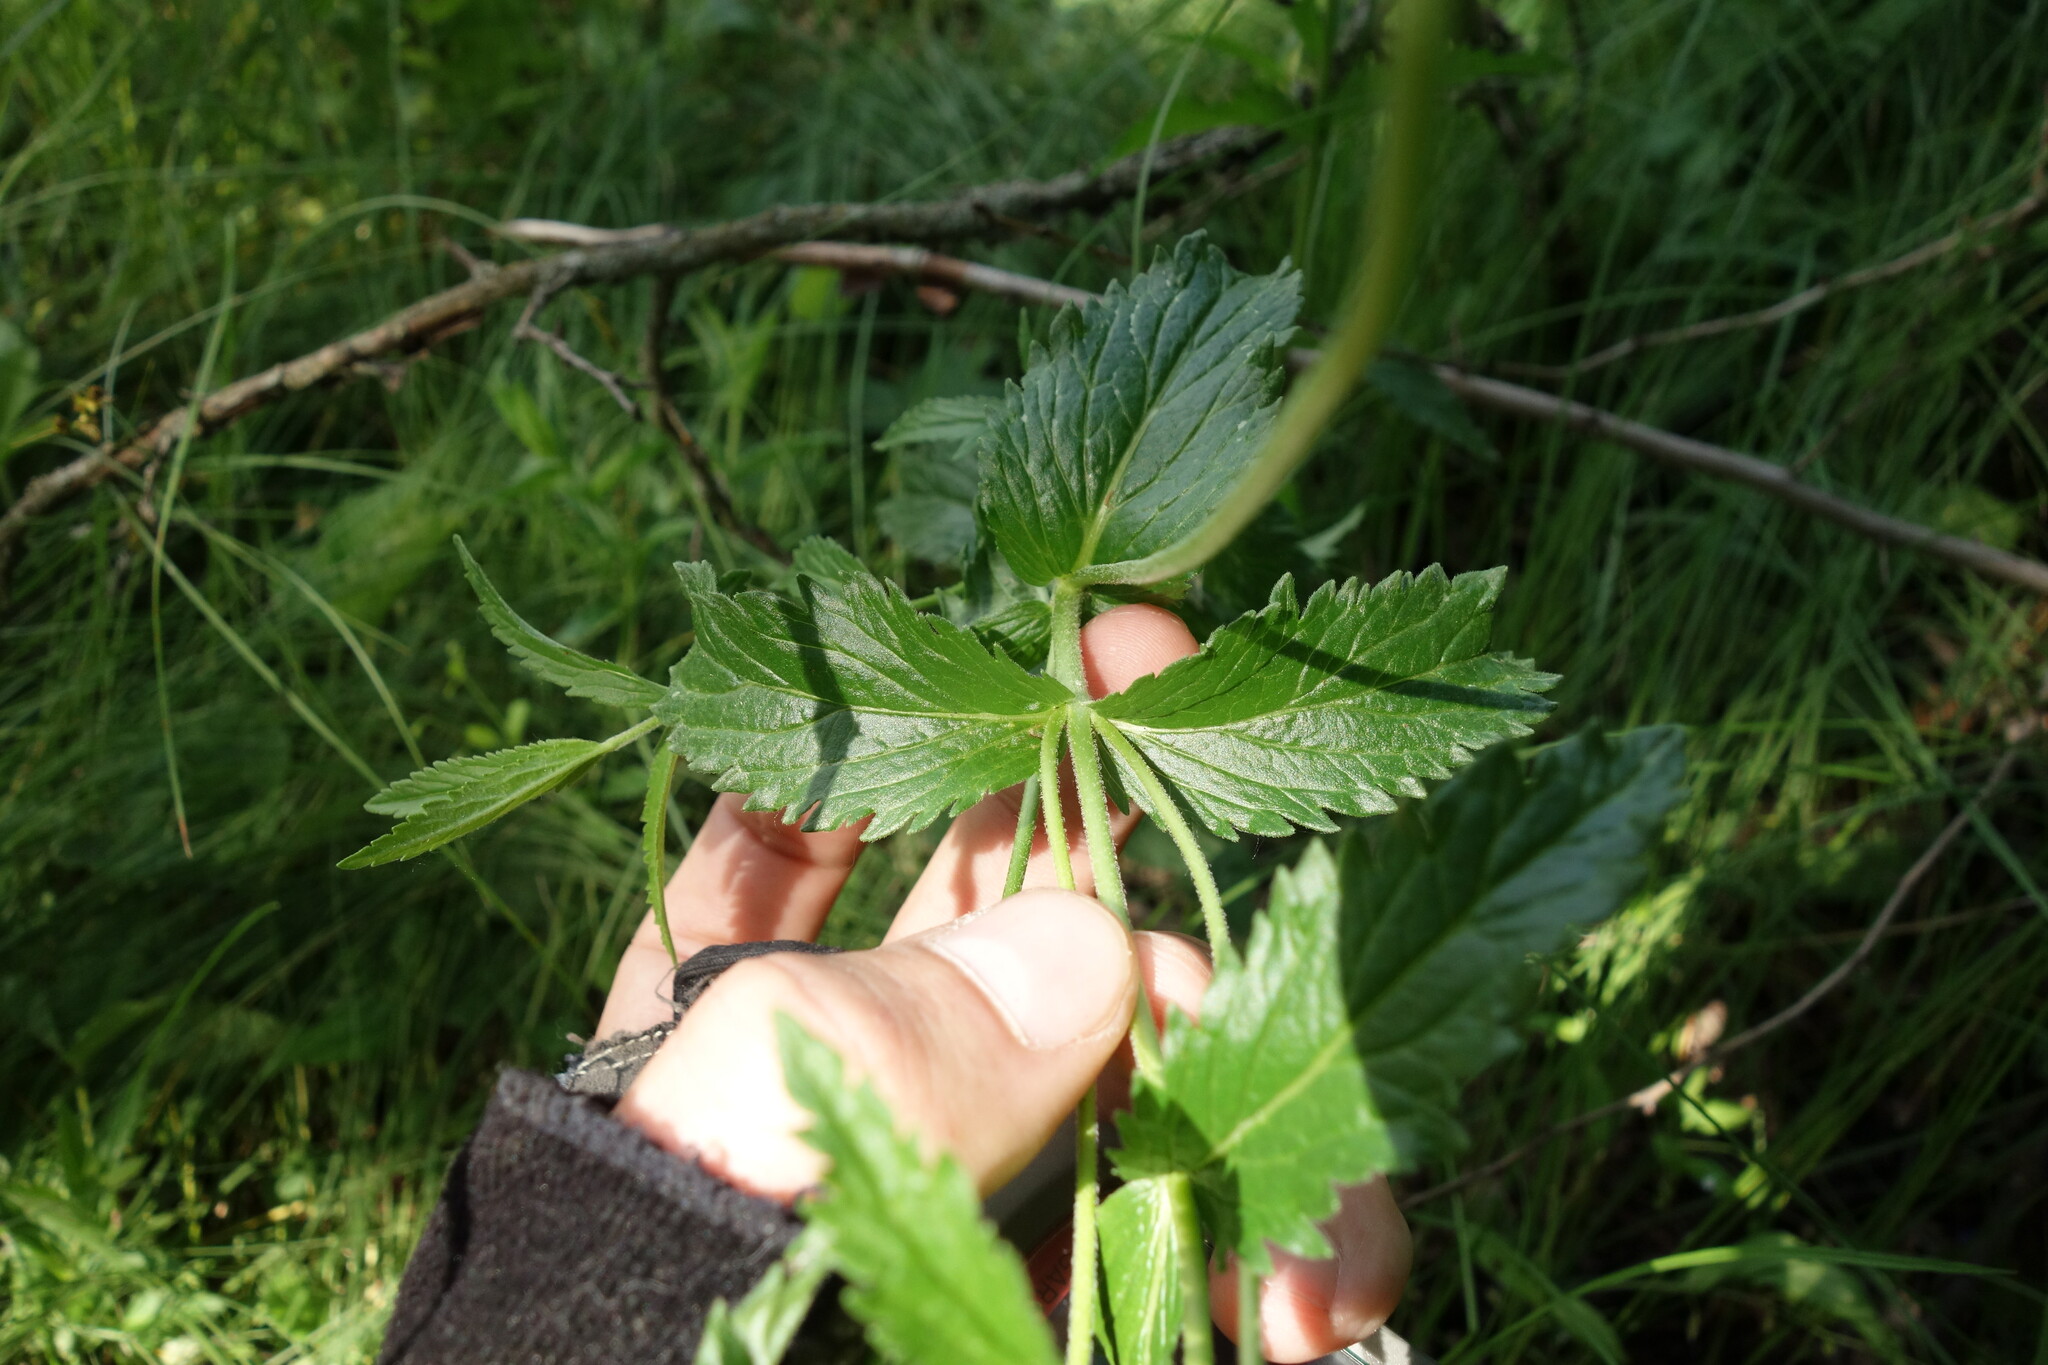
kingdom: Plantae
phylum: Tracheophyta
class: Magnoliopsida
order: Lamiales
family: Plantaginaceae
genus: Veronica
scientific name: Veronica teucrium
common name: Large speedwell
